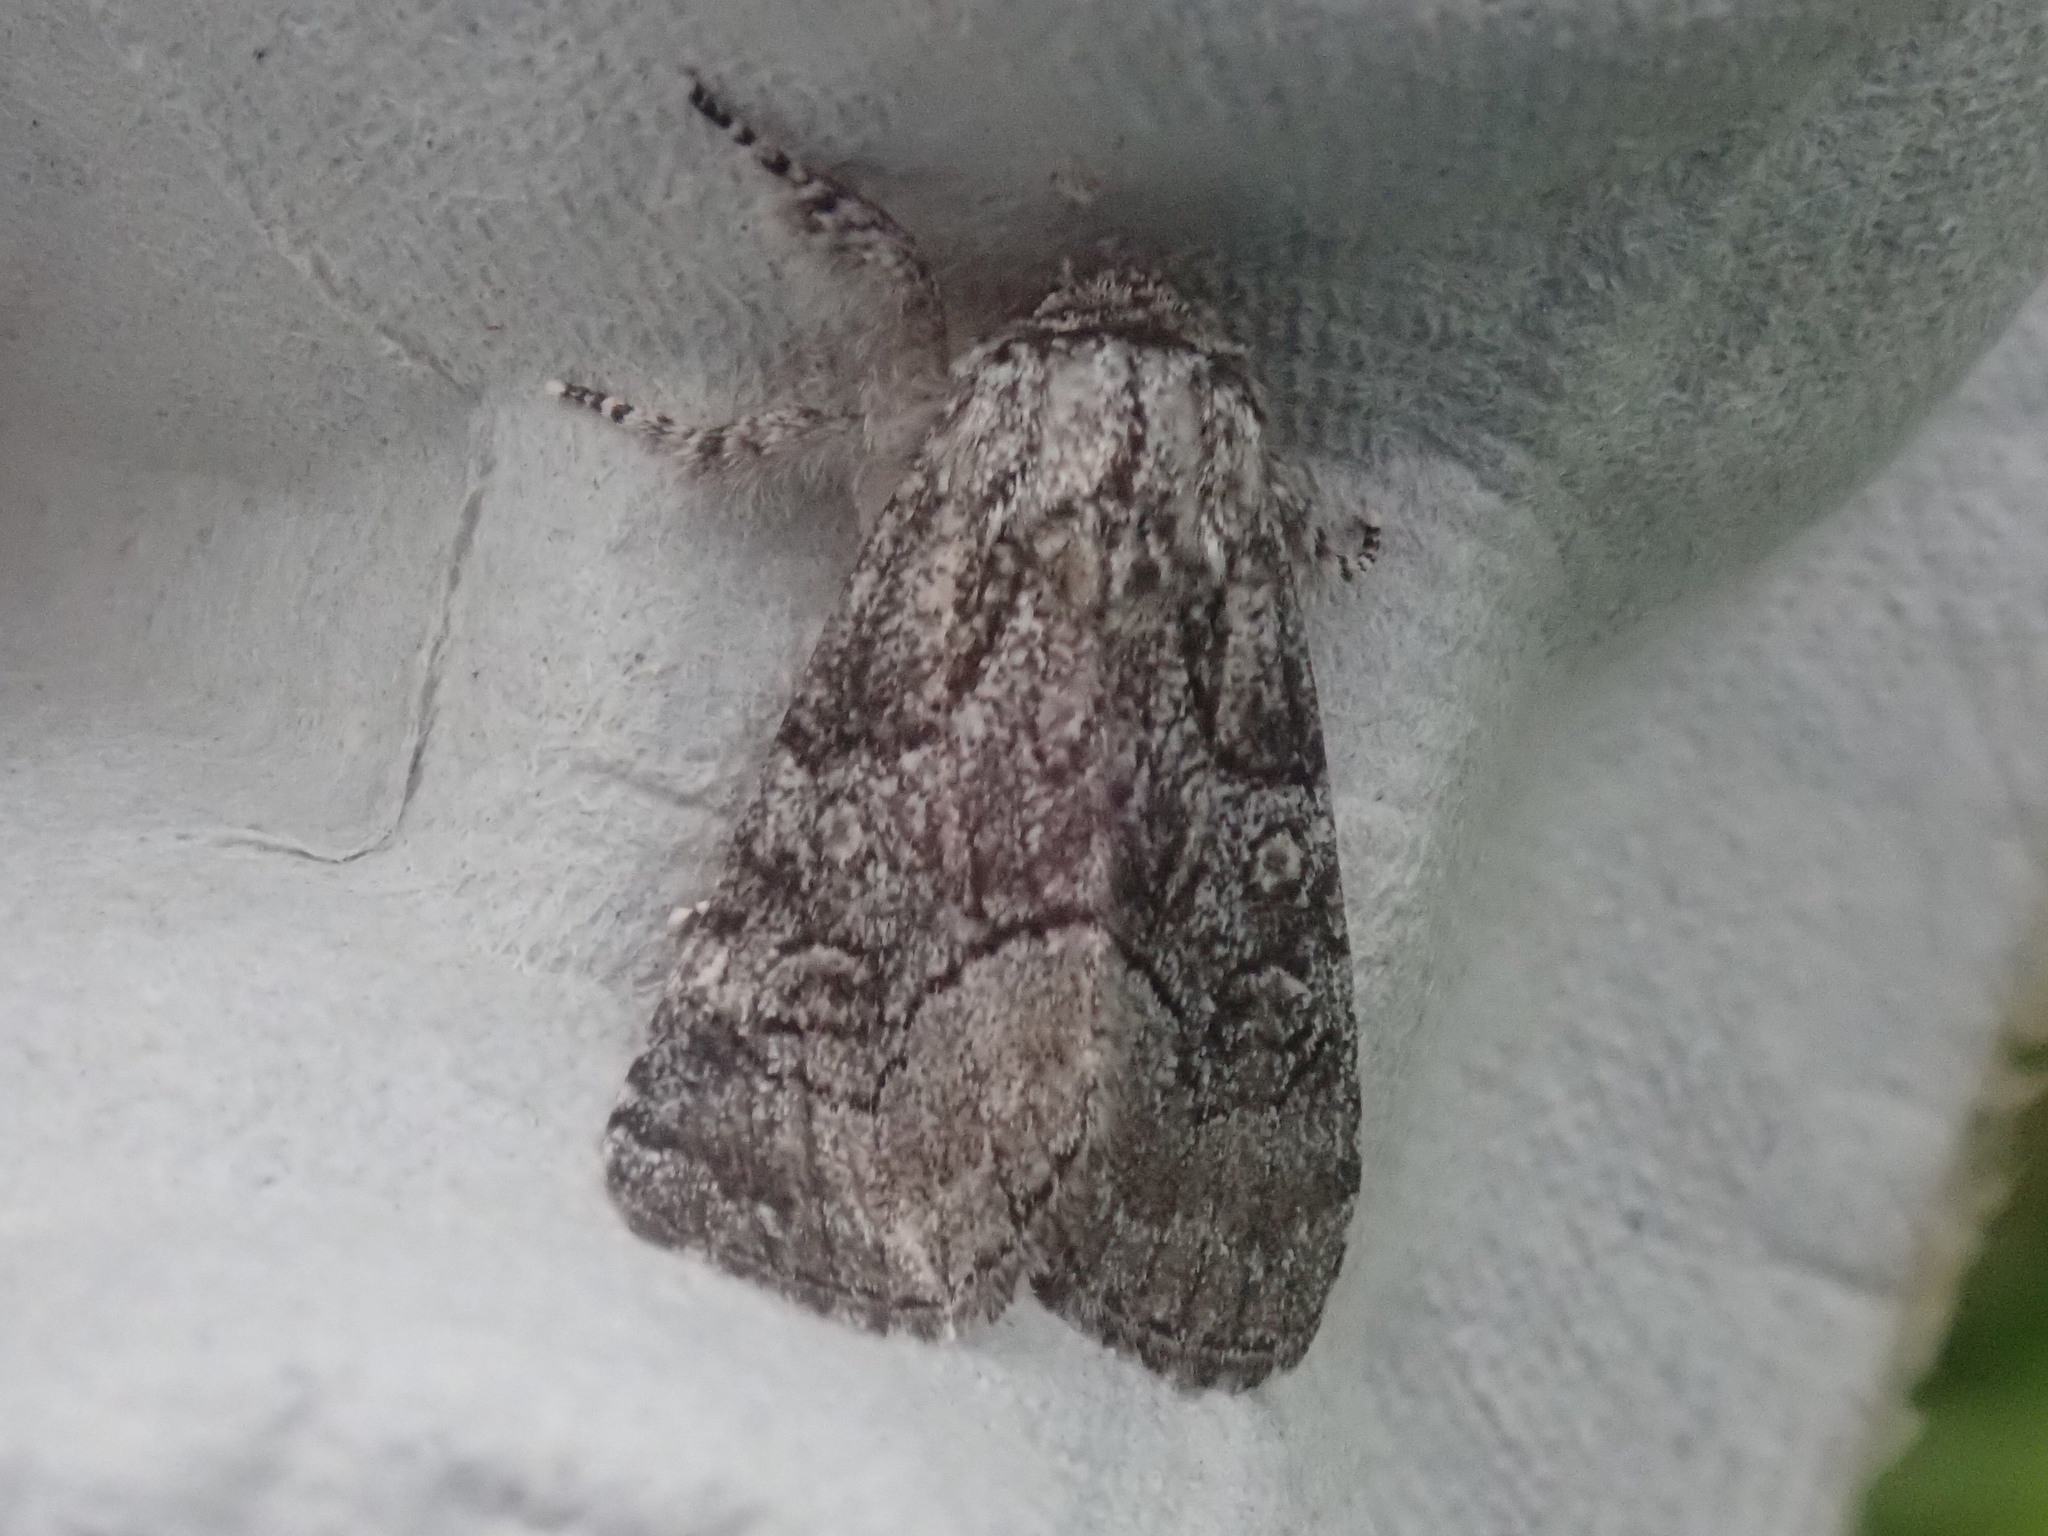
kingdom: Animalia
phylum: Arthropoda
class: Insecta
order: Lepidoptera
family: Noctuidae
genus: Raphia
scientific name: Raphia frater
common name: Brother
